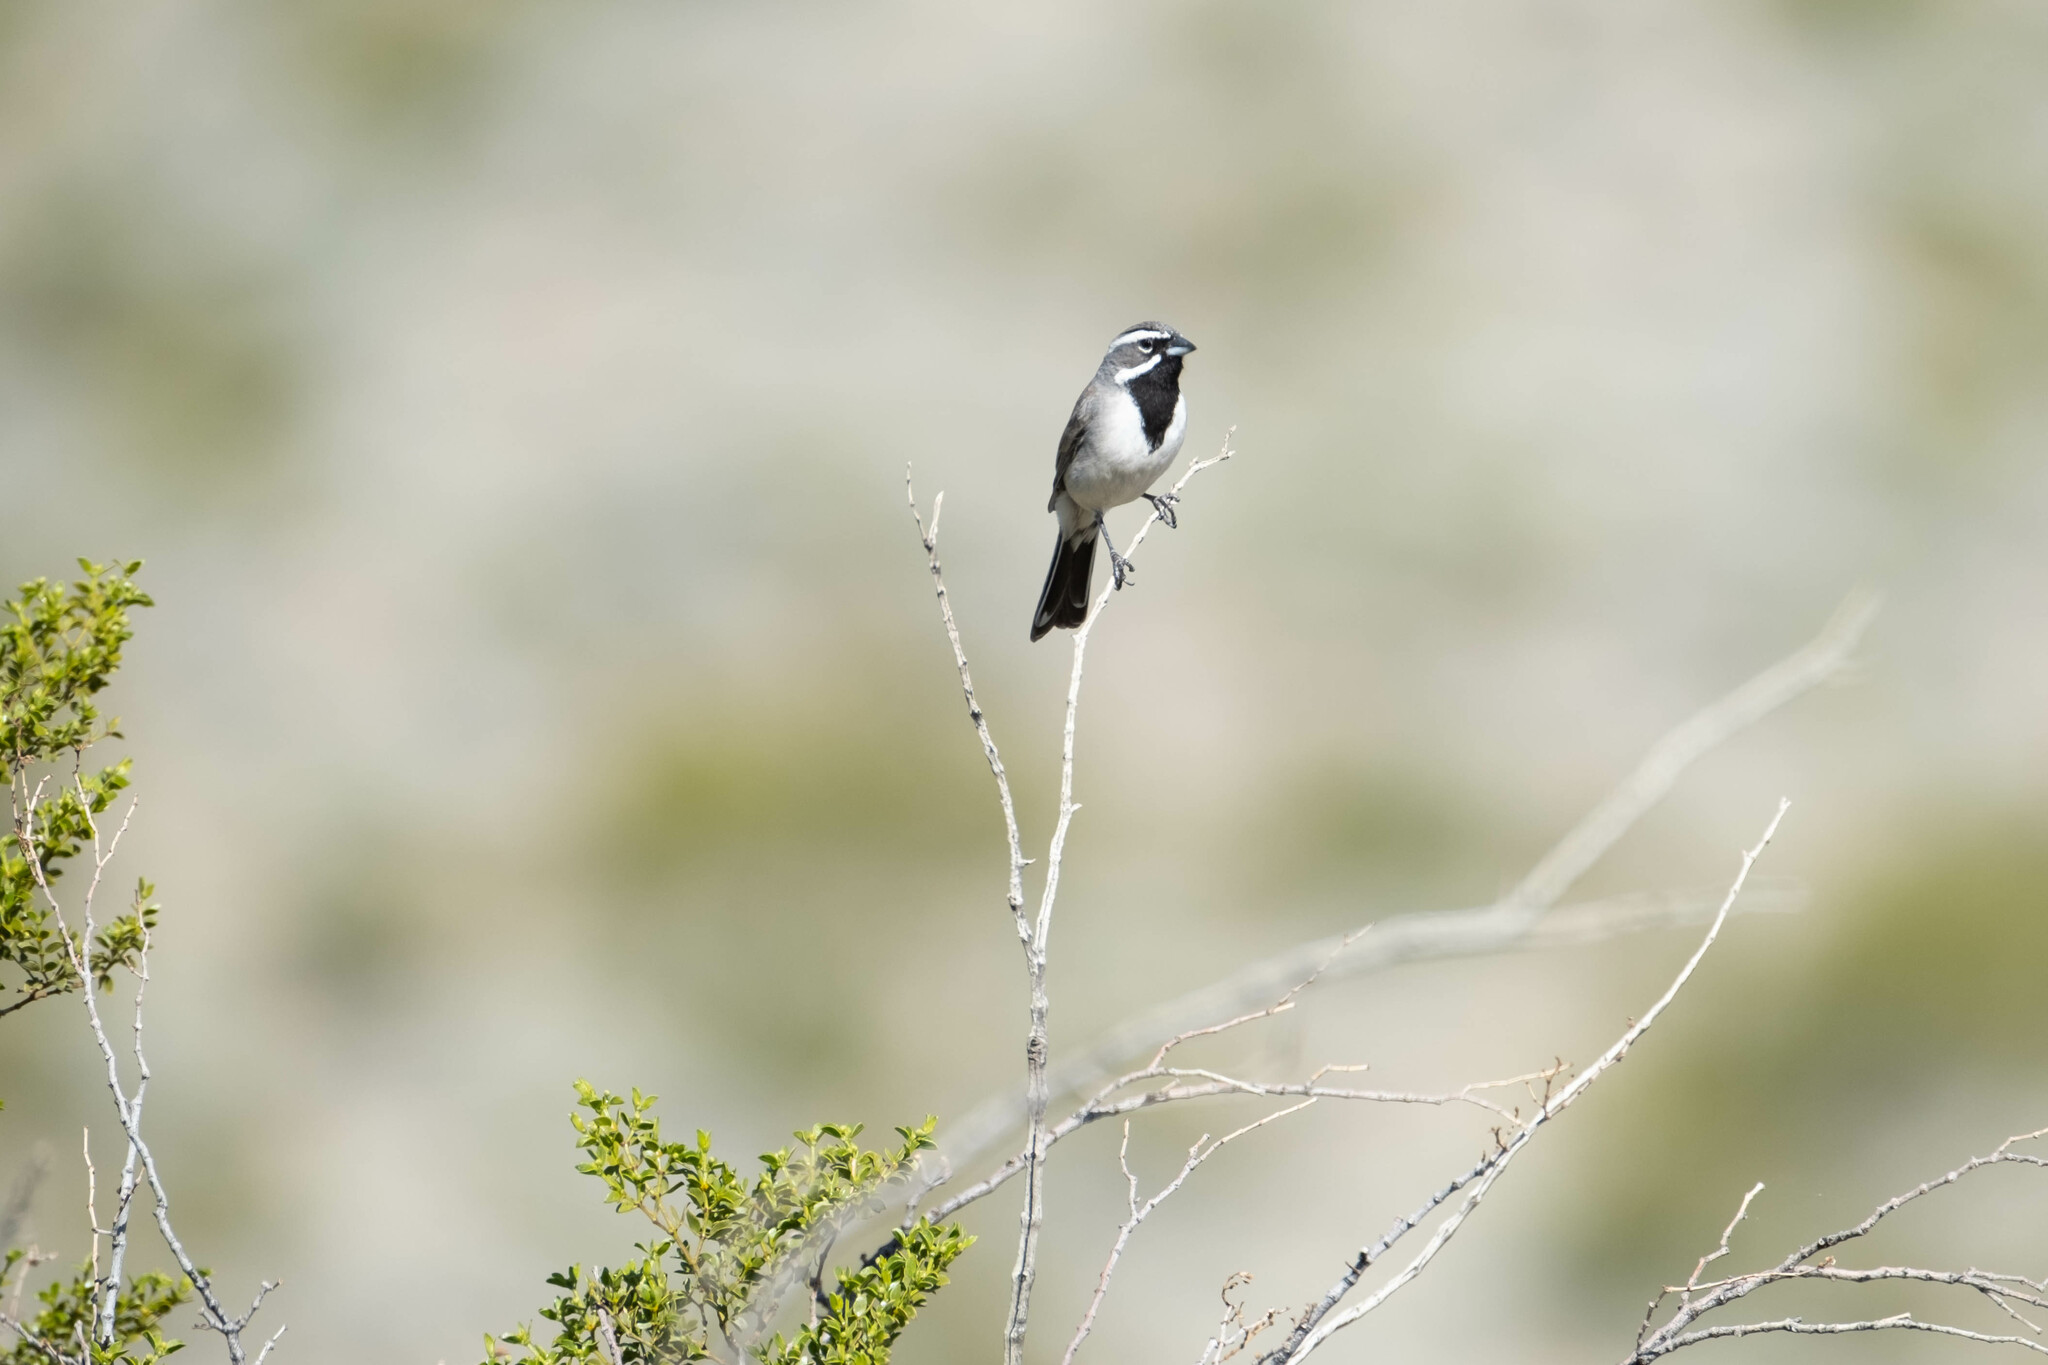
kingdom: Animalia
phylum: Chordata
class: Aves
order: Passeriformes
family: Passerellidae
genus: Amphispiza
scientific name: Amphispiza bilineata
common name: Black-throated sparrow
